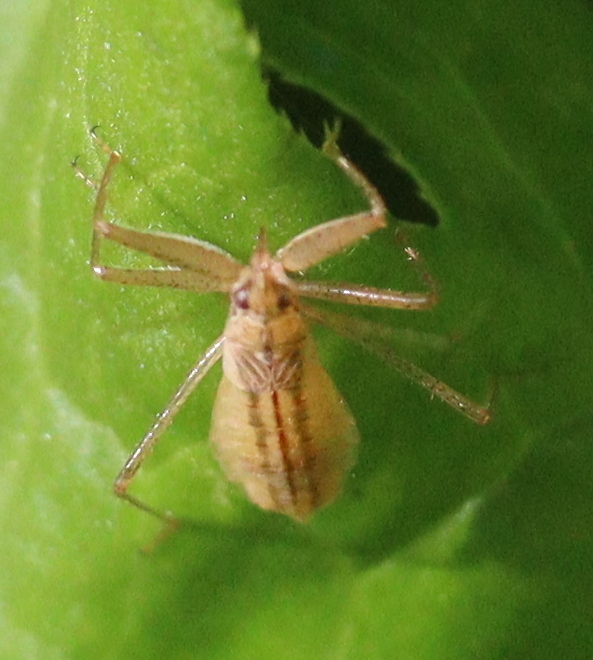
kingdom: Animalia
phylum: Arthropoda
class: Insecta
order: Hemiptera
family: Nabidae
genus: Nabis
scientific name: Nabis limbatus
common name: Marsh damselbug
